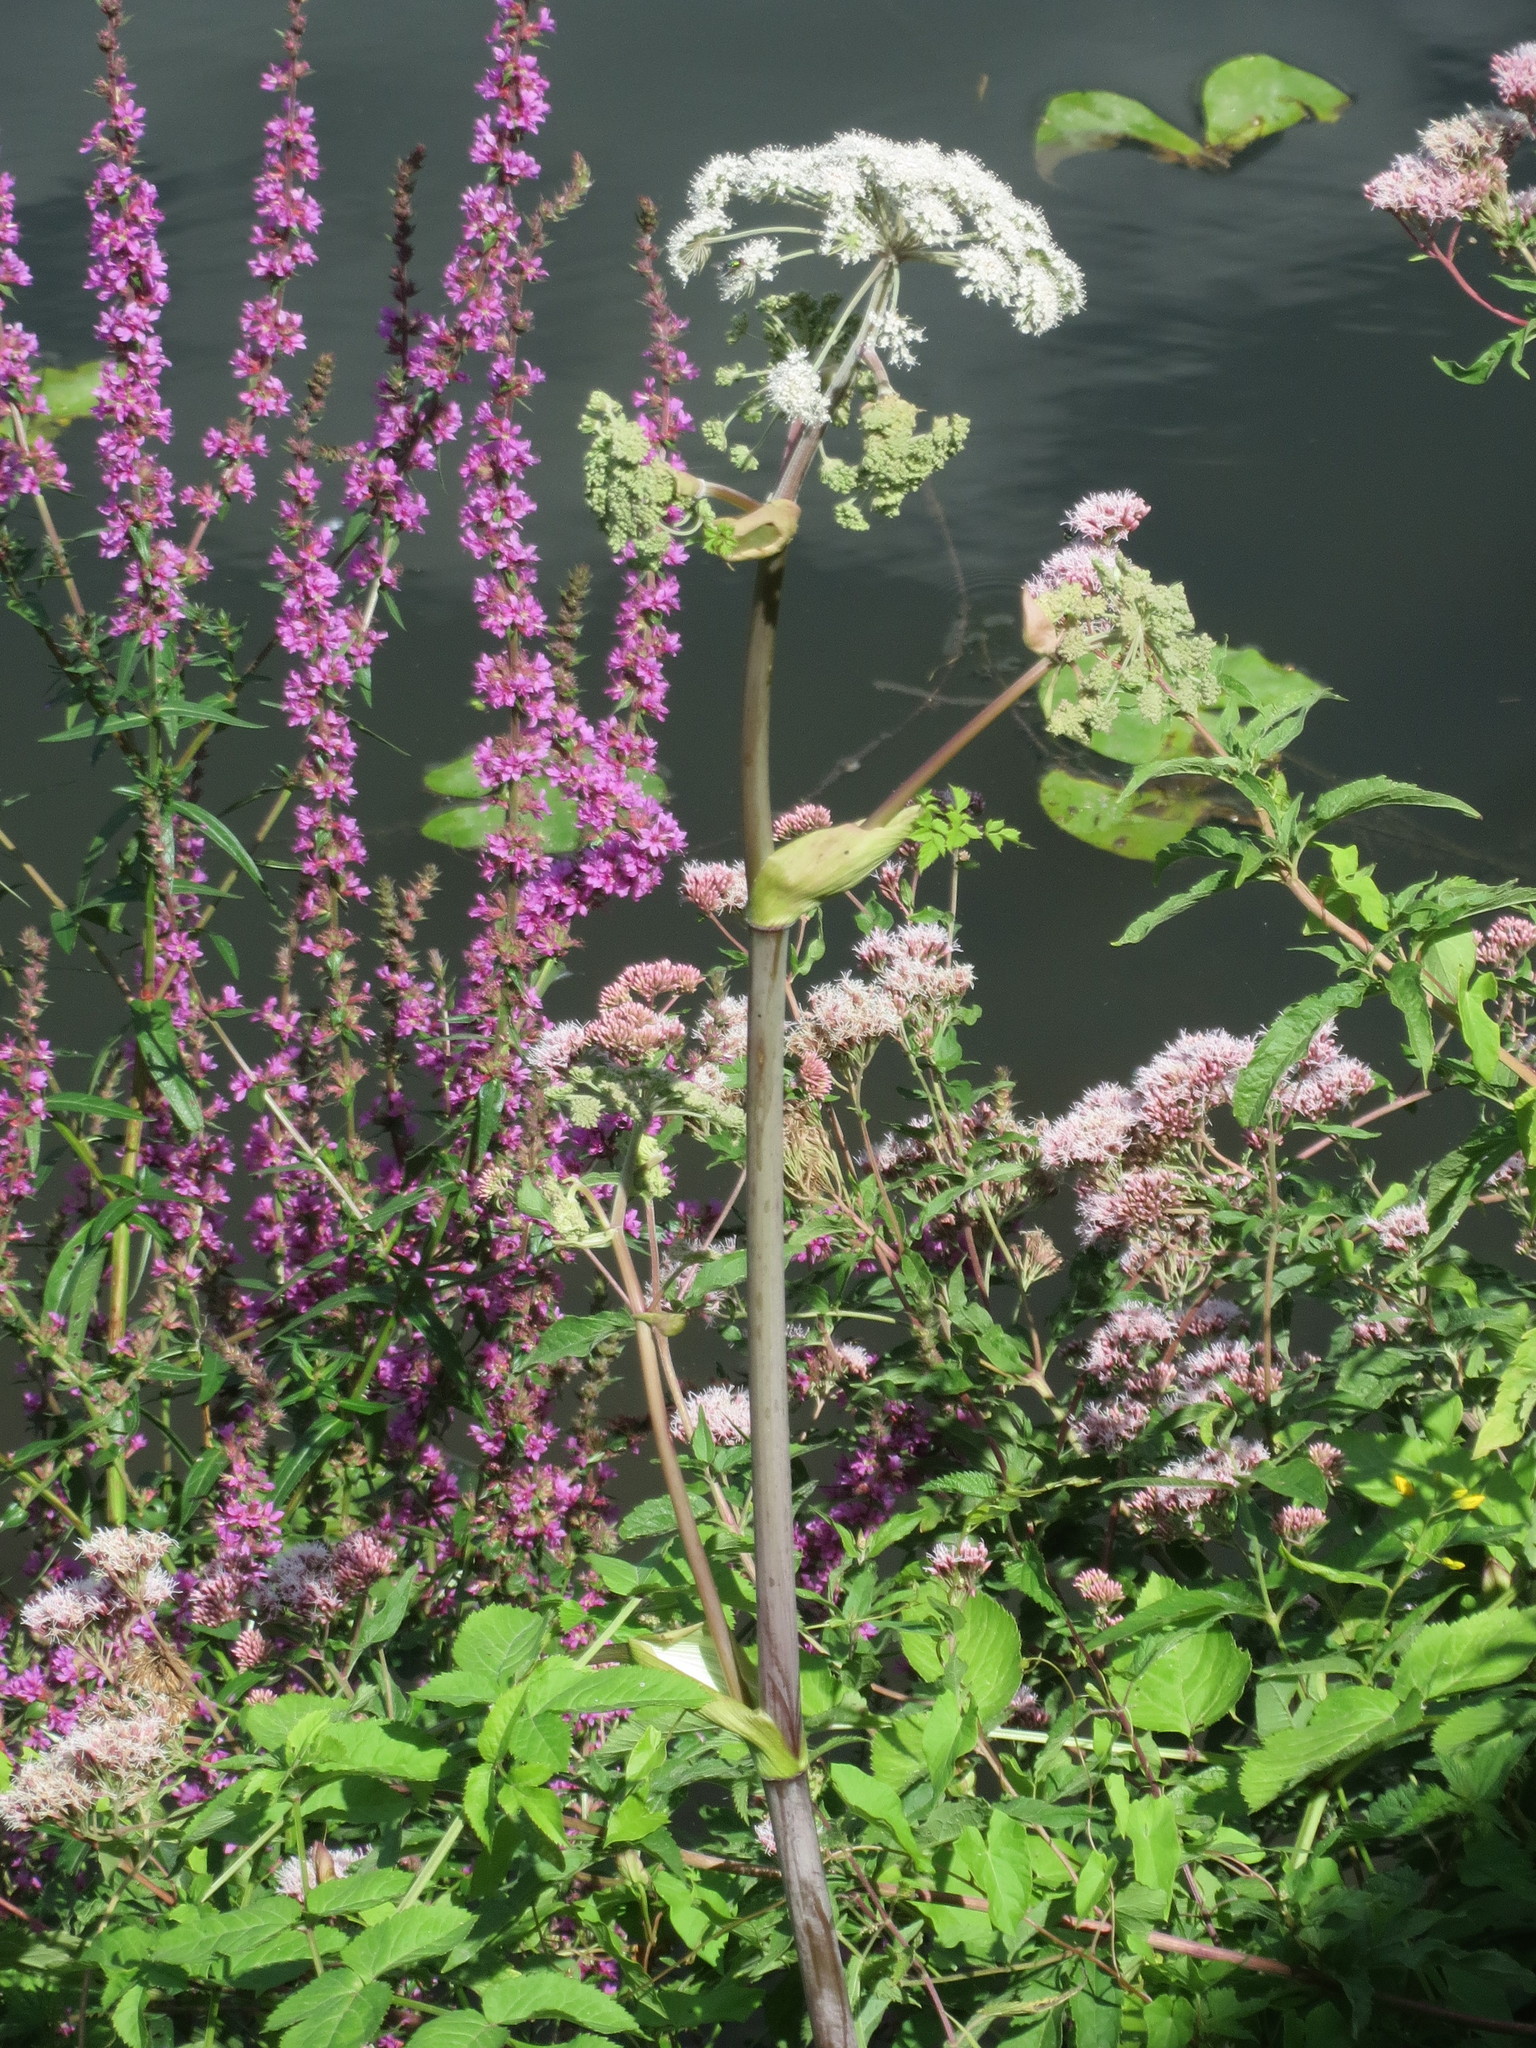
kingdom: Plantae
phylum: Tracheophyta
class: Magnoliopsida
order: Apiales
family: Apiaceae
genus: Angelica
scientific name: Angelica sylvestris
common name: Wild angelica
